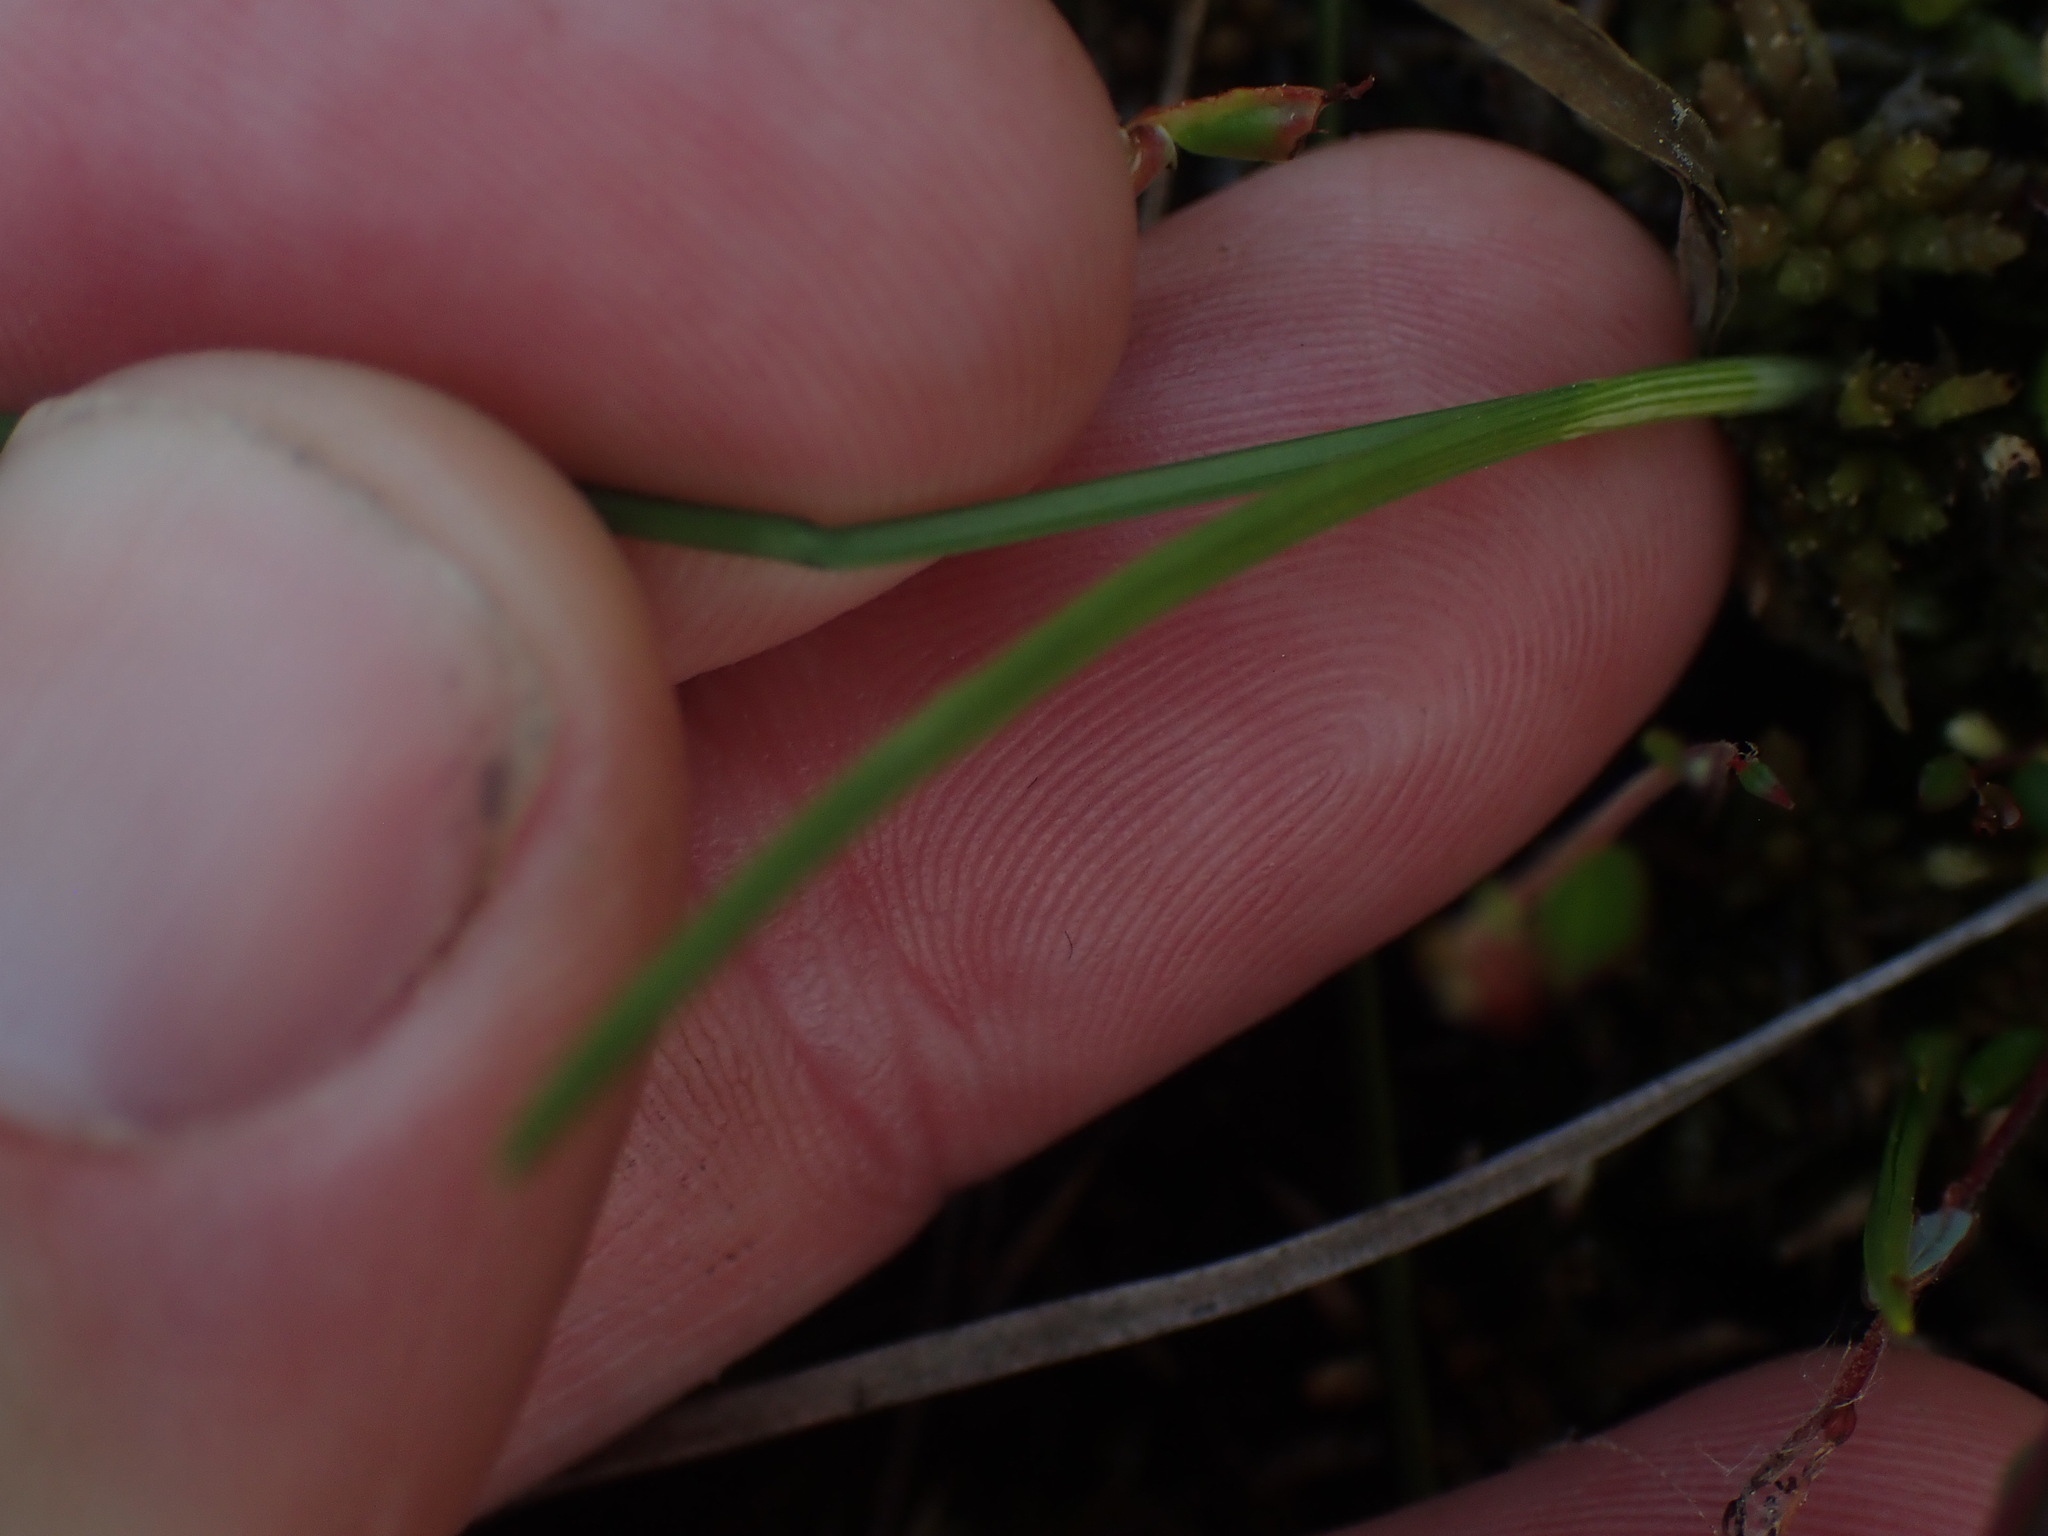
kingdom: Plantae
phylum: Tracheophyta
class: Liliopsida
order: Poales
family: Cyperaceae
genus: Carex
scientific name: Carex pauciflora
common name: Few-flowered sedge
